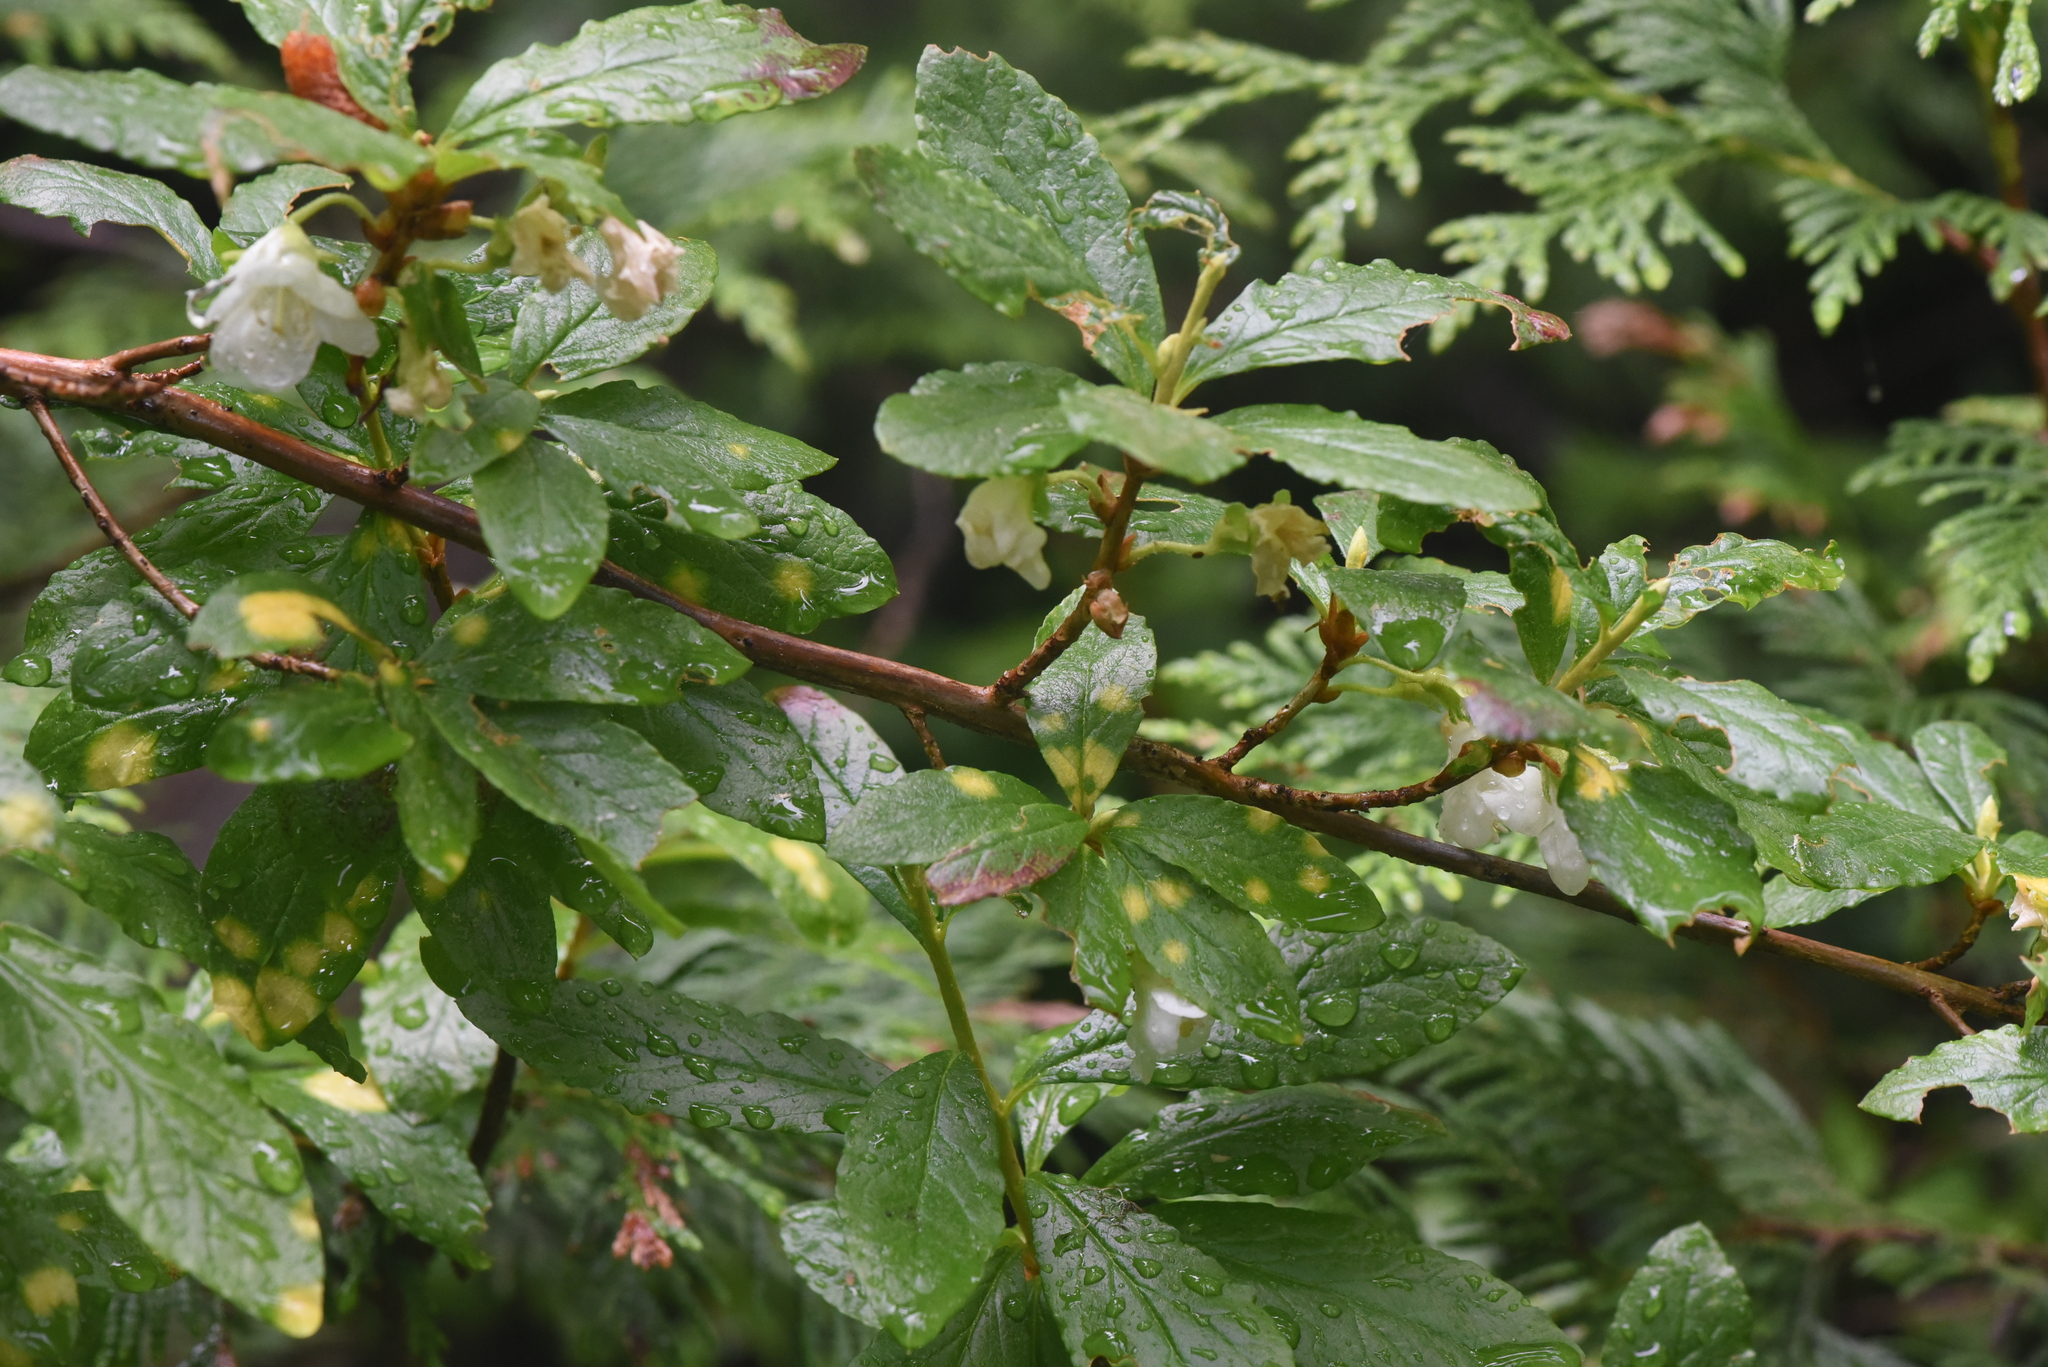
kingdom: Fungi
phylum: Basidiomycota
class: Exobasidiomycetes
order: Exobasidiales
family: Exobasidiaceae
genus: Exobasidium
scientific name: Exobasidium burtii
